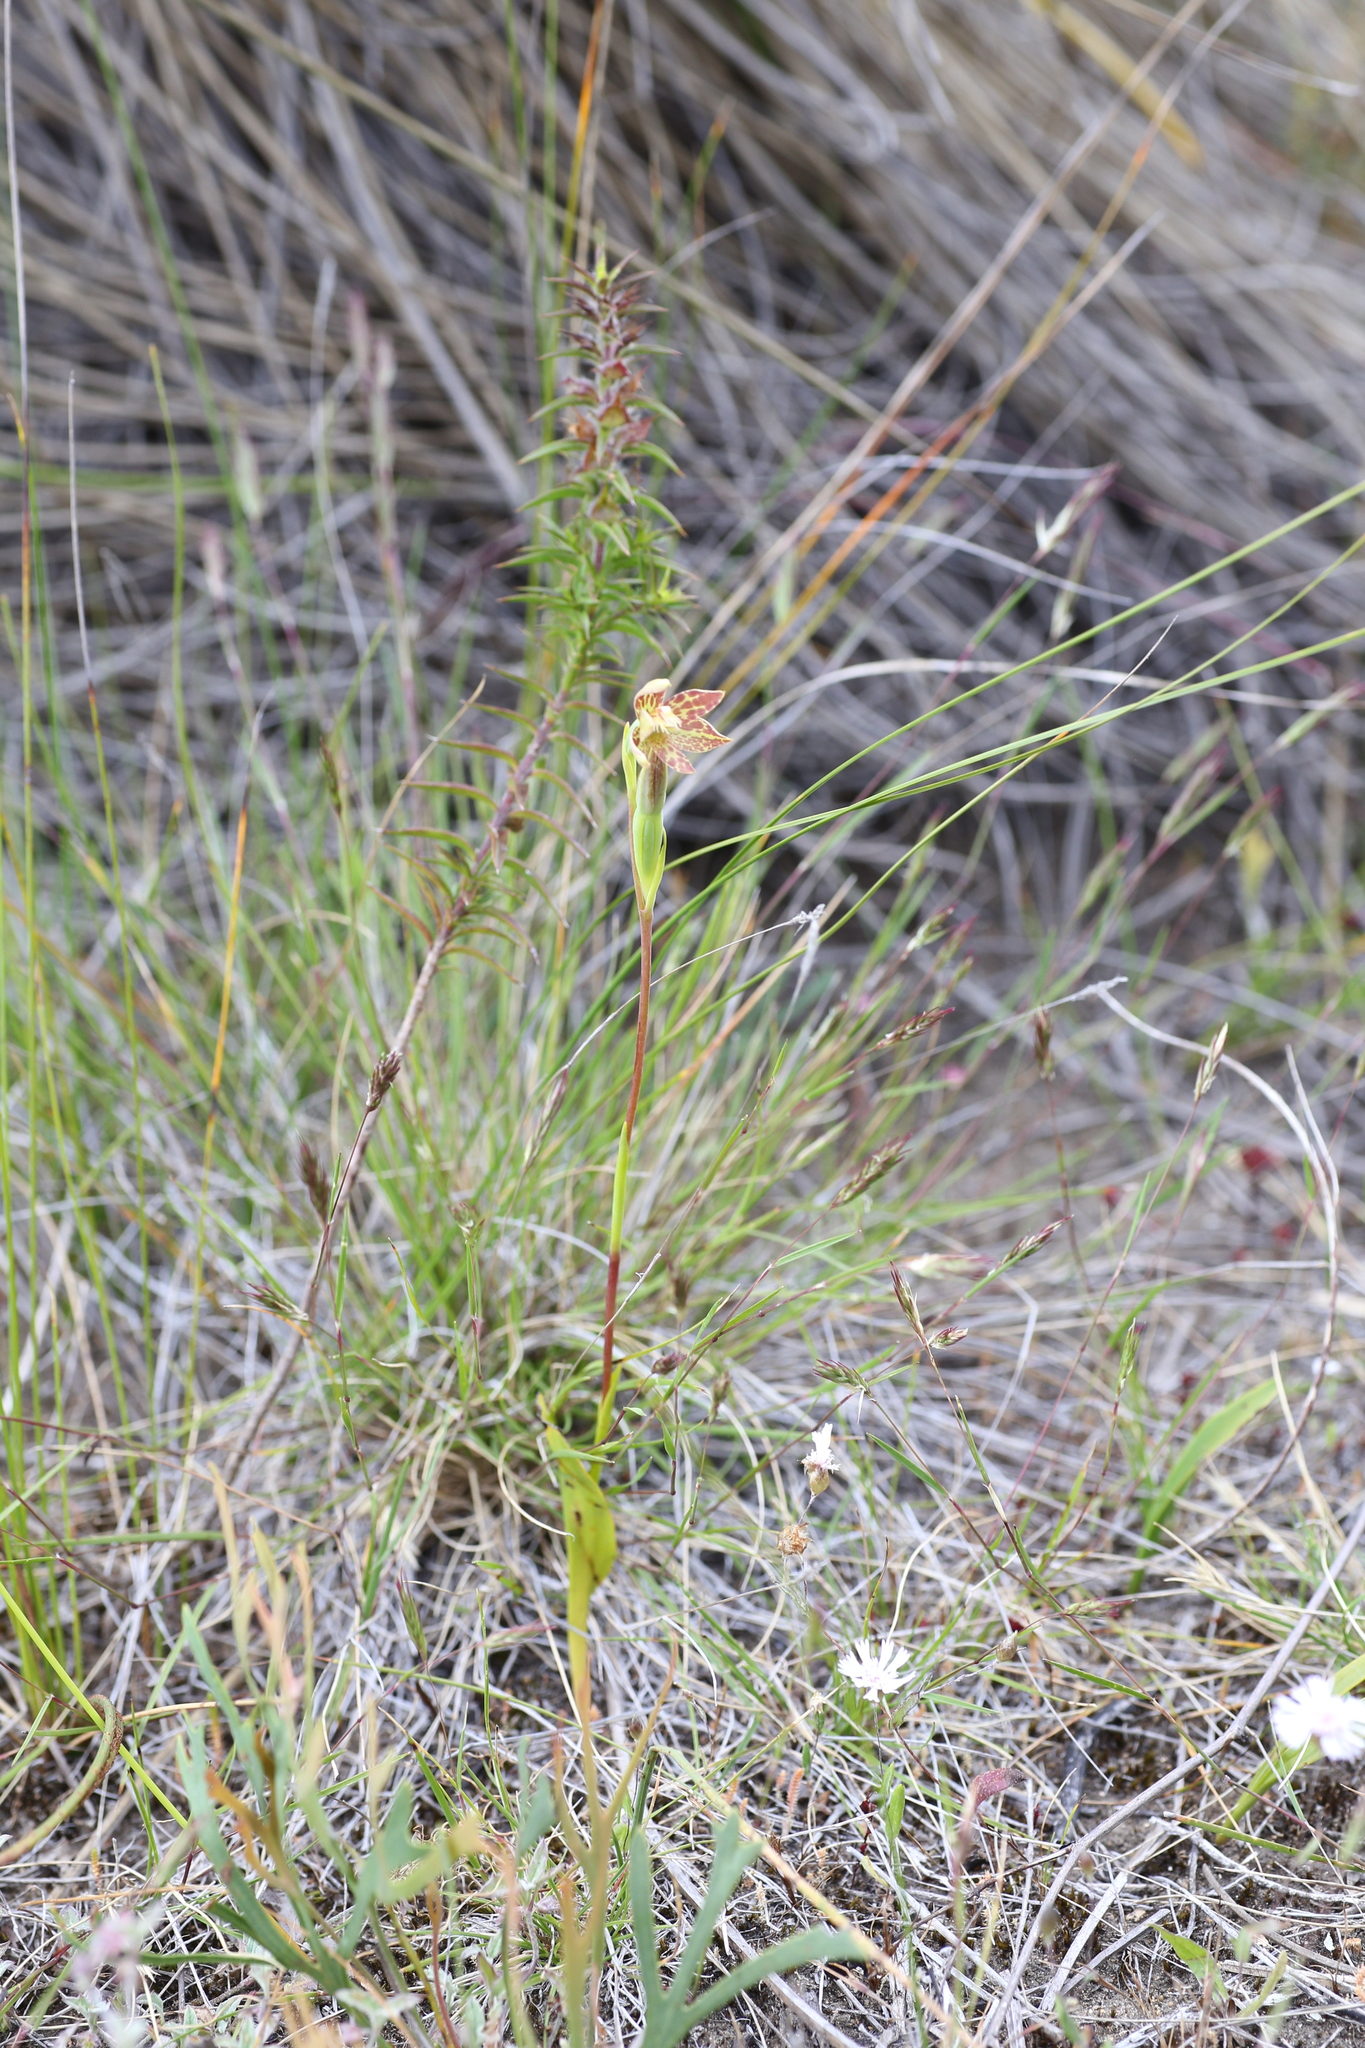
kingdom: Plantae
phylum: Tracheophyta
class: Liliopsida
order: Asparagales
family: Orchidaceae
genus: Thelymitra
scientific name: Thelymitra benthamiana
